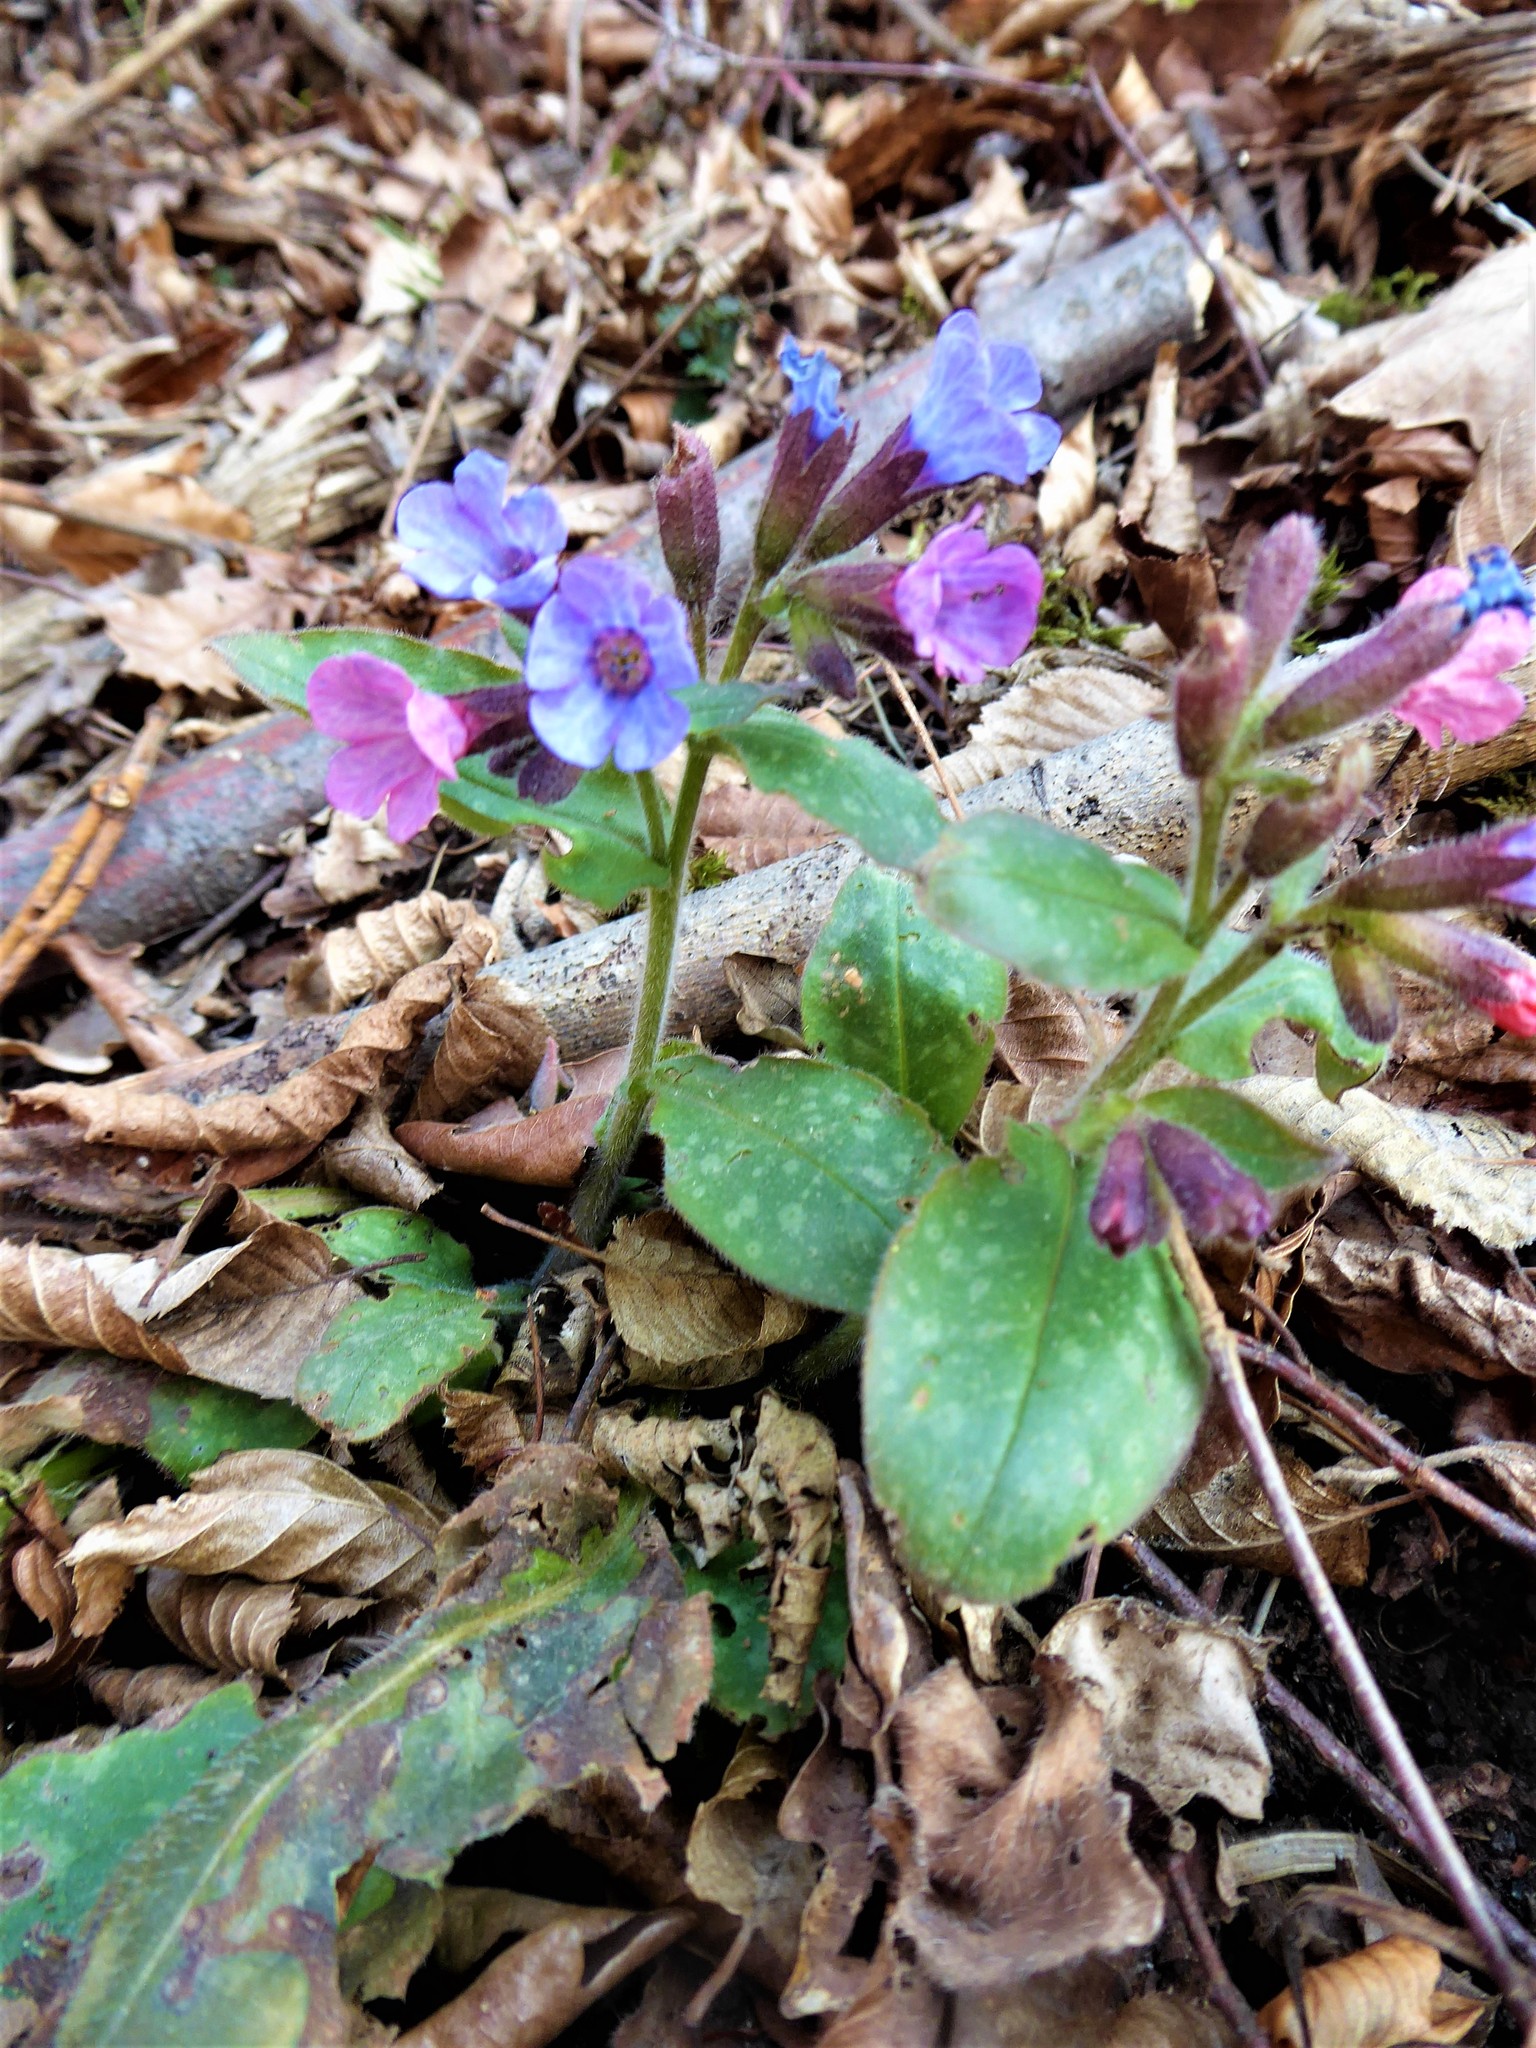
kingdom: Plantae
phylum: Tracheophyta
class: Magnoliopsida
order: Boraginales
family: Boraginaceae
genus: Pulmonaria
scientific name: Pulmonaria officinalis
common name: Lungwort
